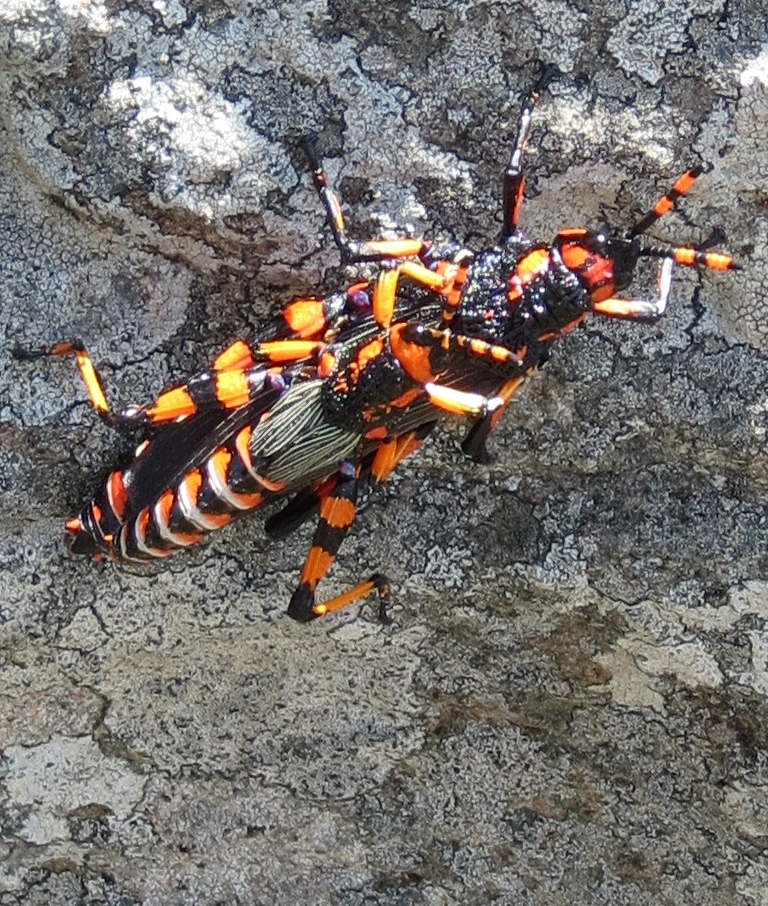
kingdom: Animalia
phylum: Arthropoda
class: Insecta
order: Orthoptera
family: Pyrgomorphidae
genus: Dictyophorus
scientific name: Dictyophorus spumans
